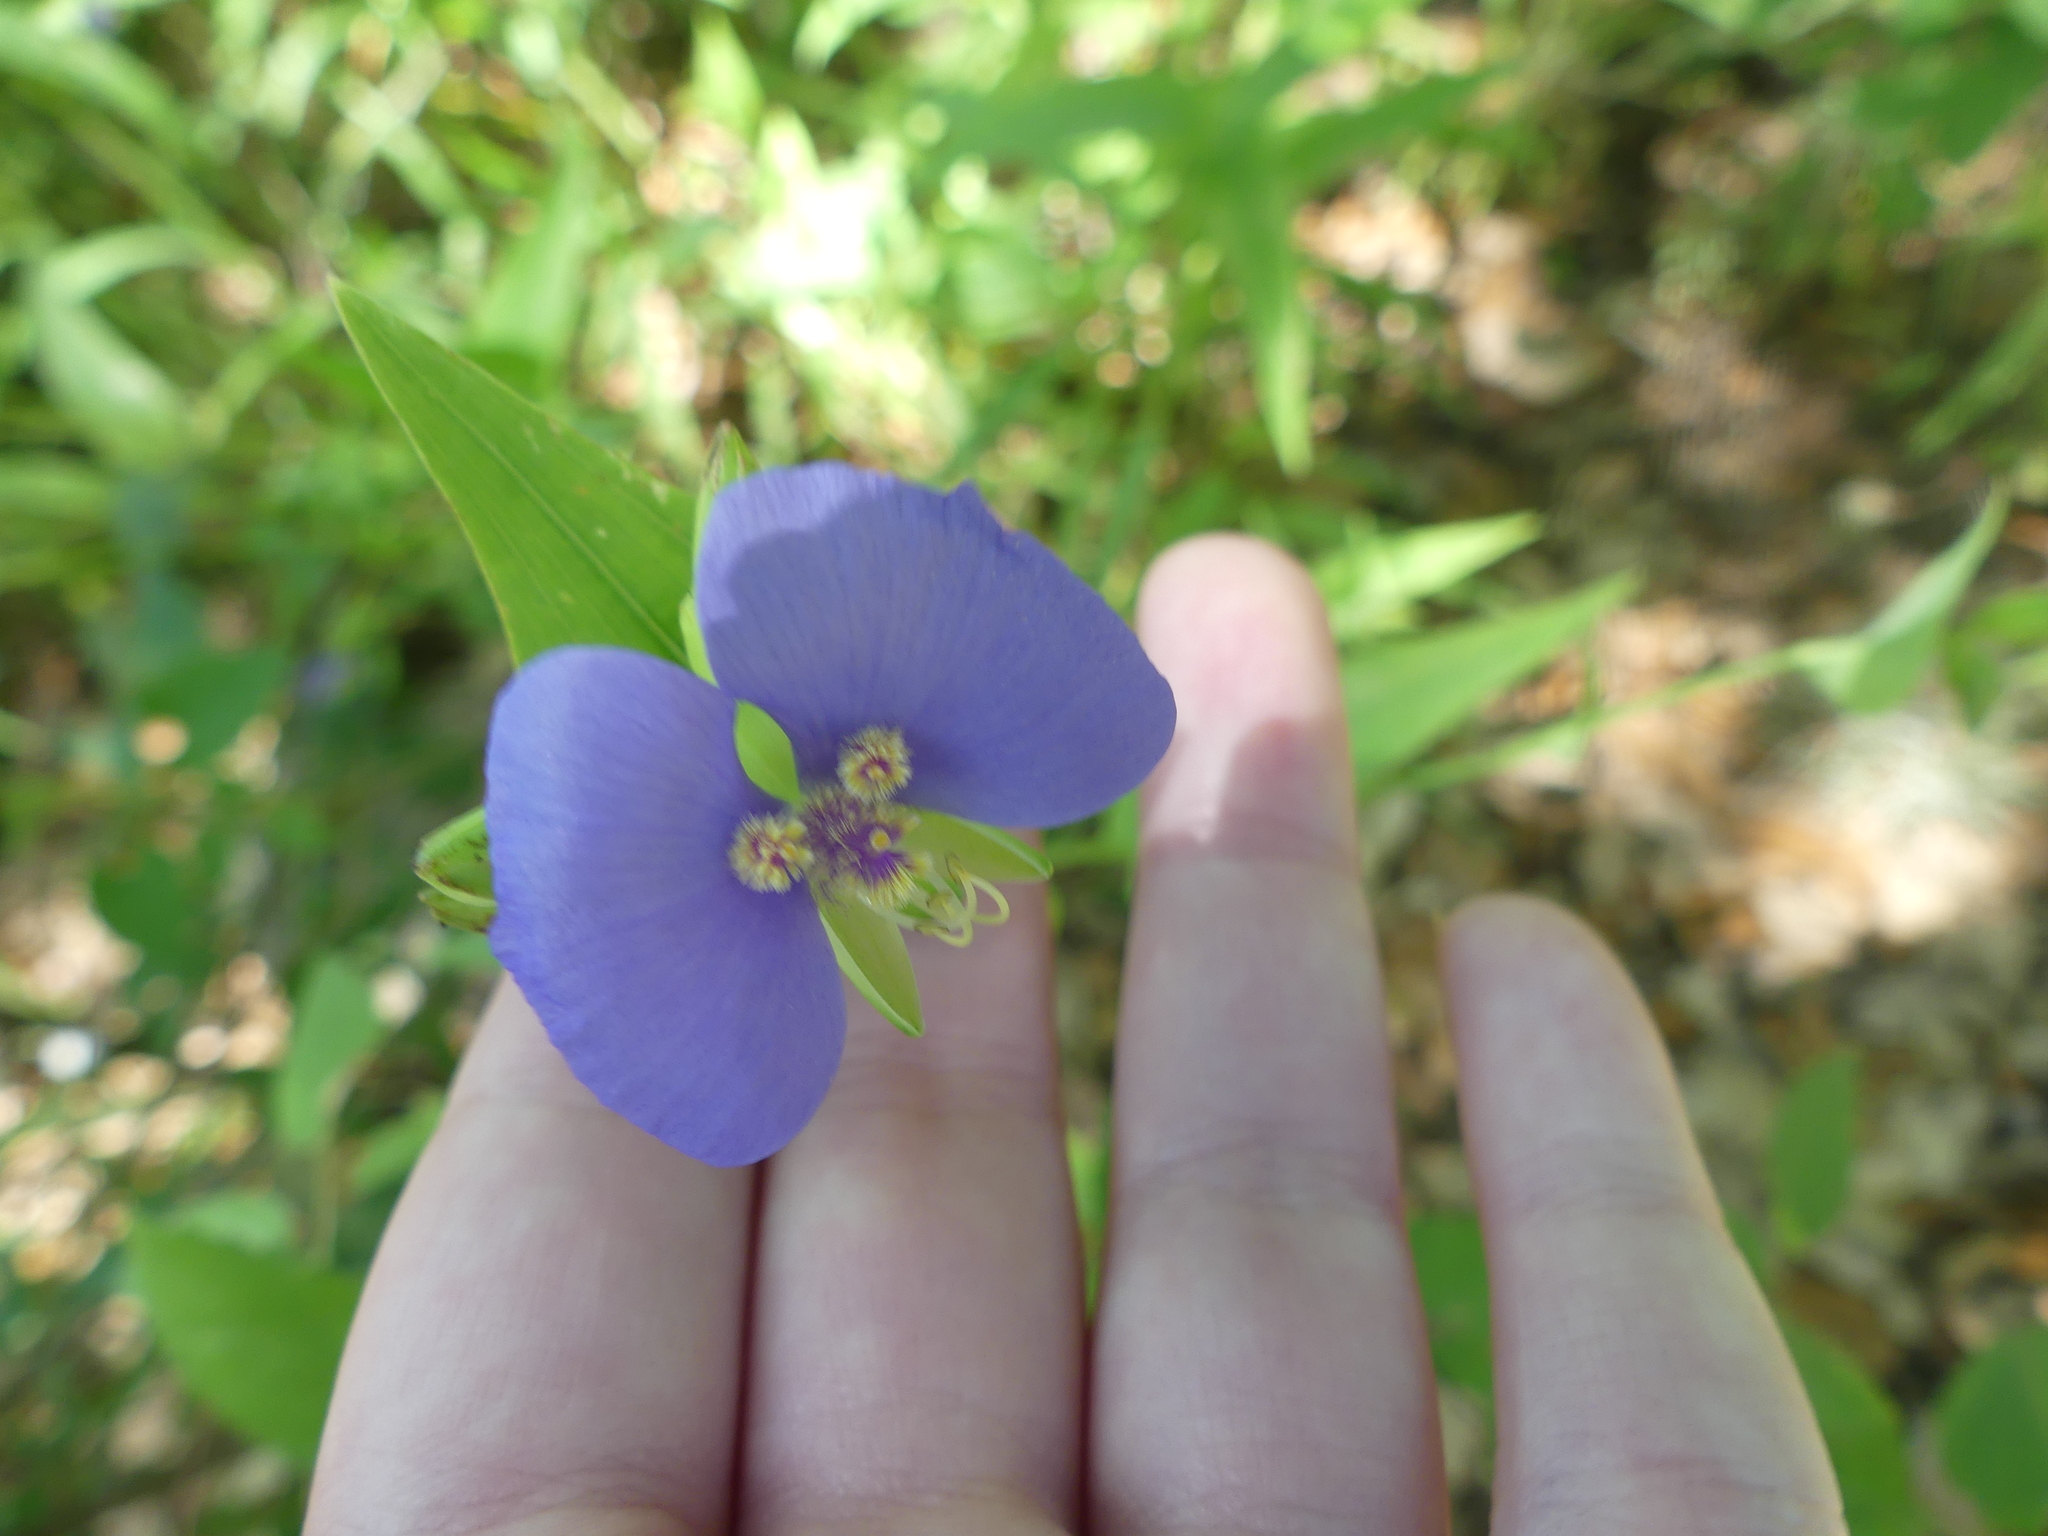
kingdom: Plantae
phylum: Tracheophyta
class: Liliopsida
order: Commelinales
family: Commelinaceae
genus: Tinantia
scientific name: Tinantia anomala
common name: False dayflower
